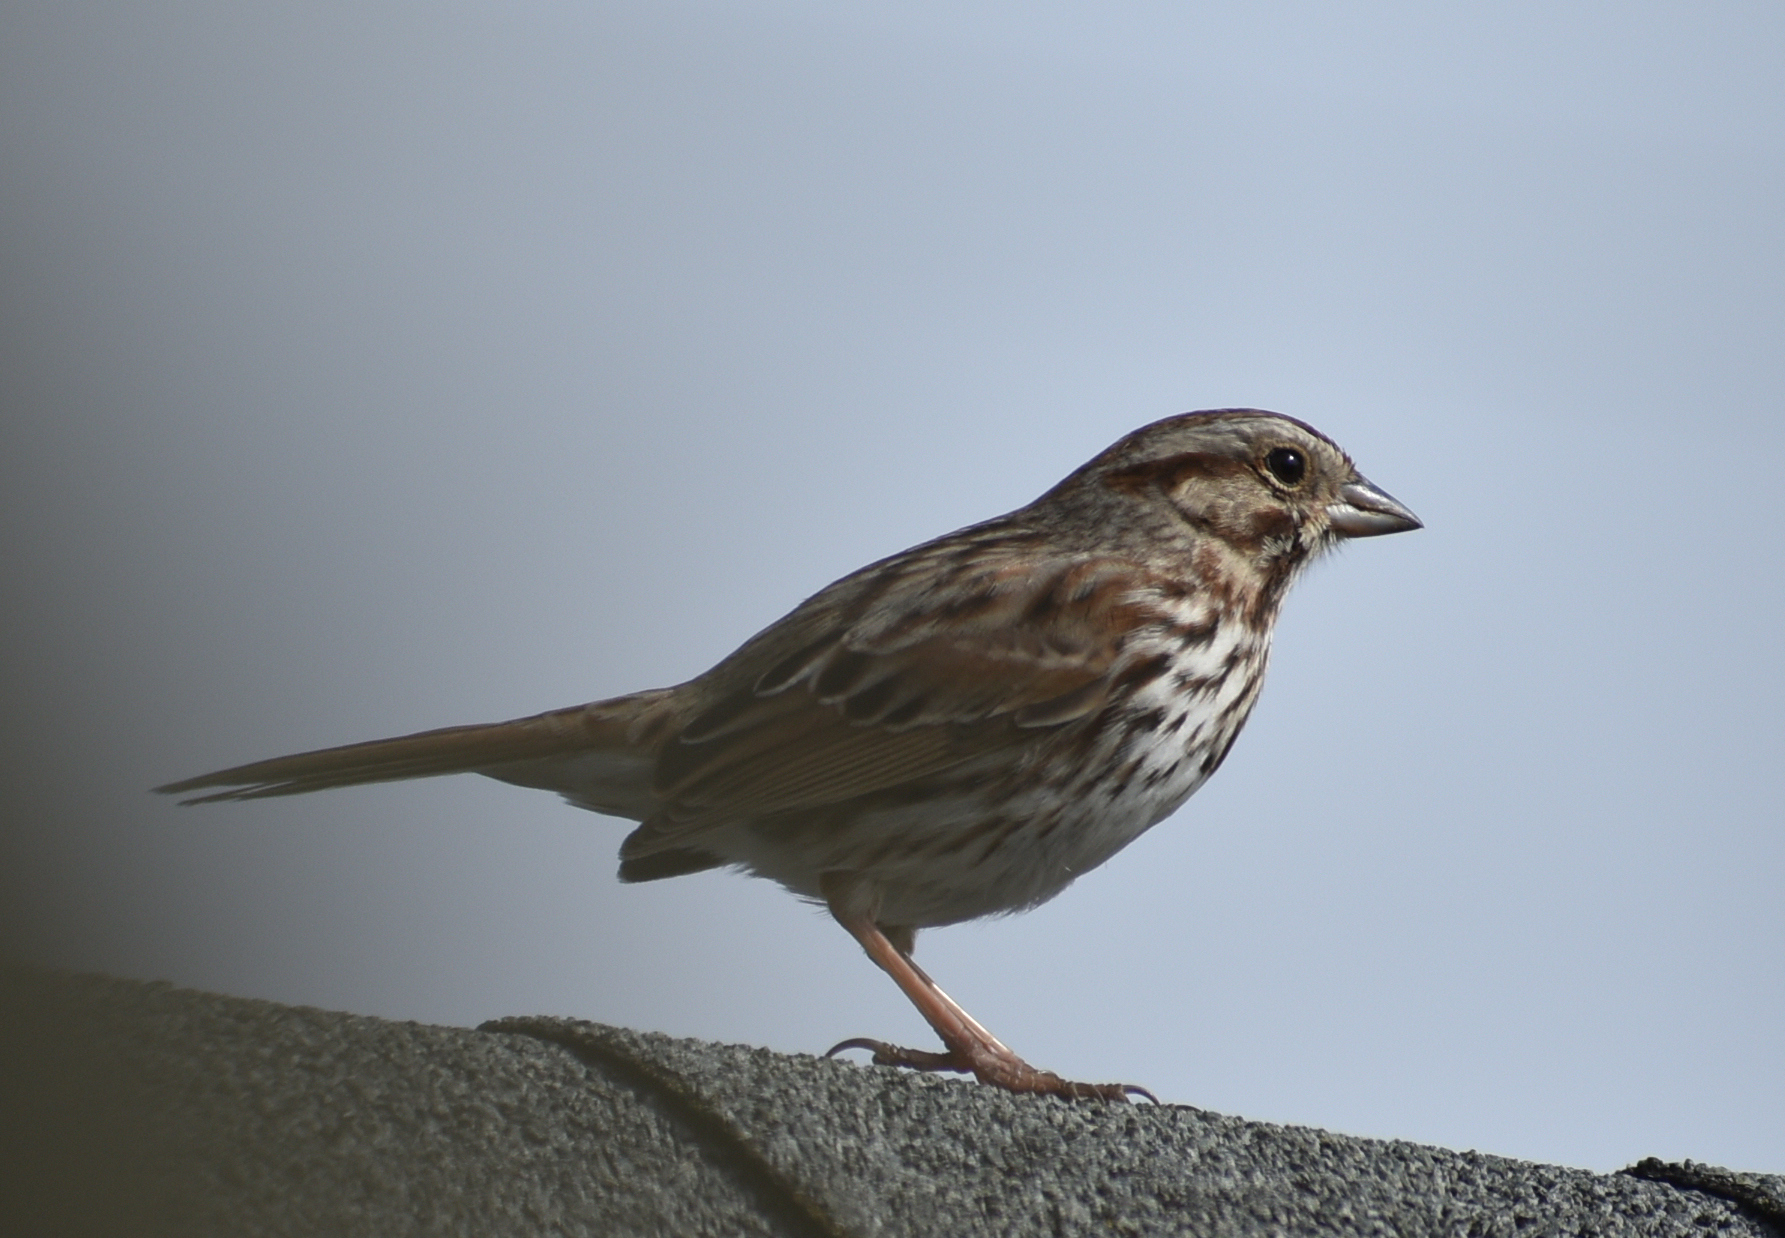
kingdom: Animalia
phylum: Chordata
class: Aves
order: Passeriformes
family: Passerellidae
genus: Melospiza
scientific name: Melospiza melodia
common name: Song sparrow
